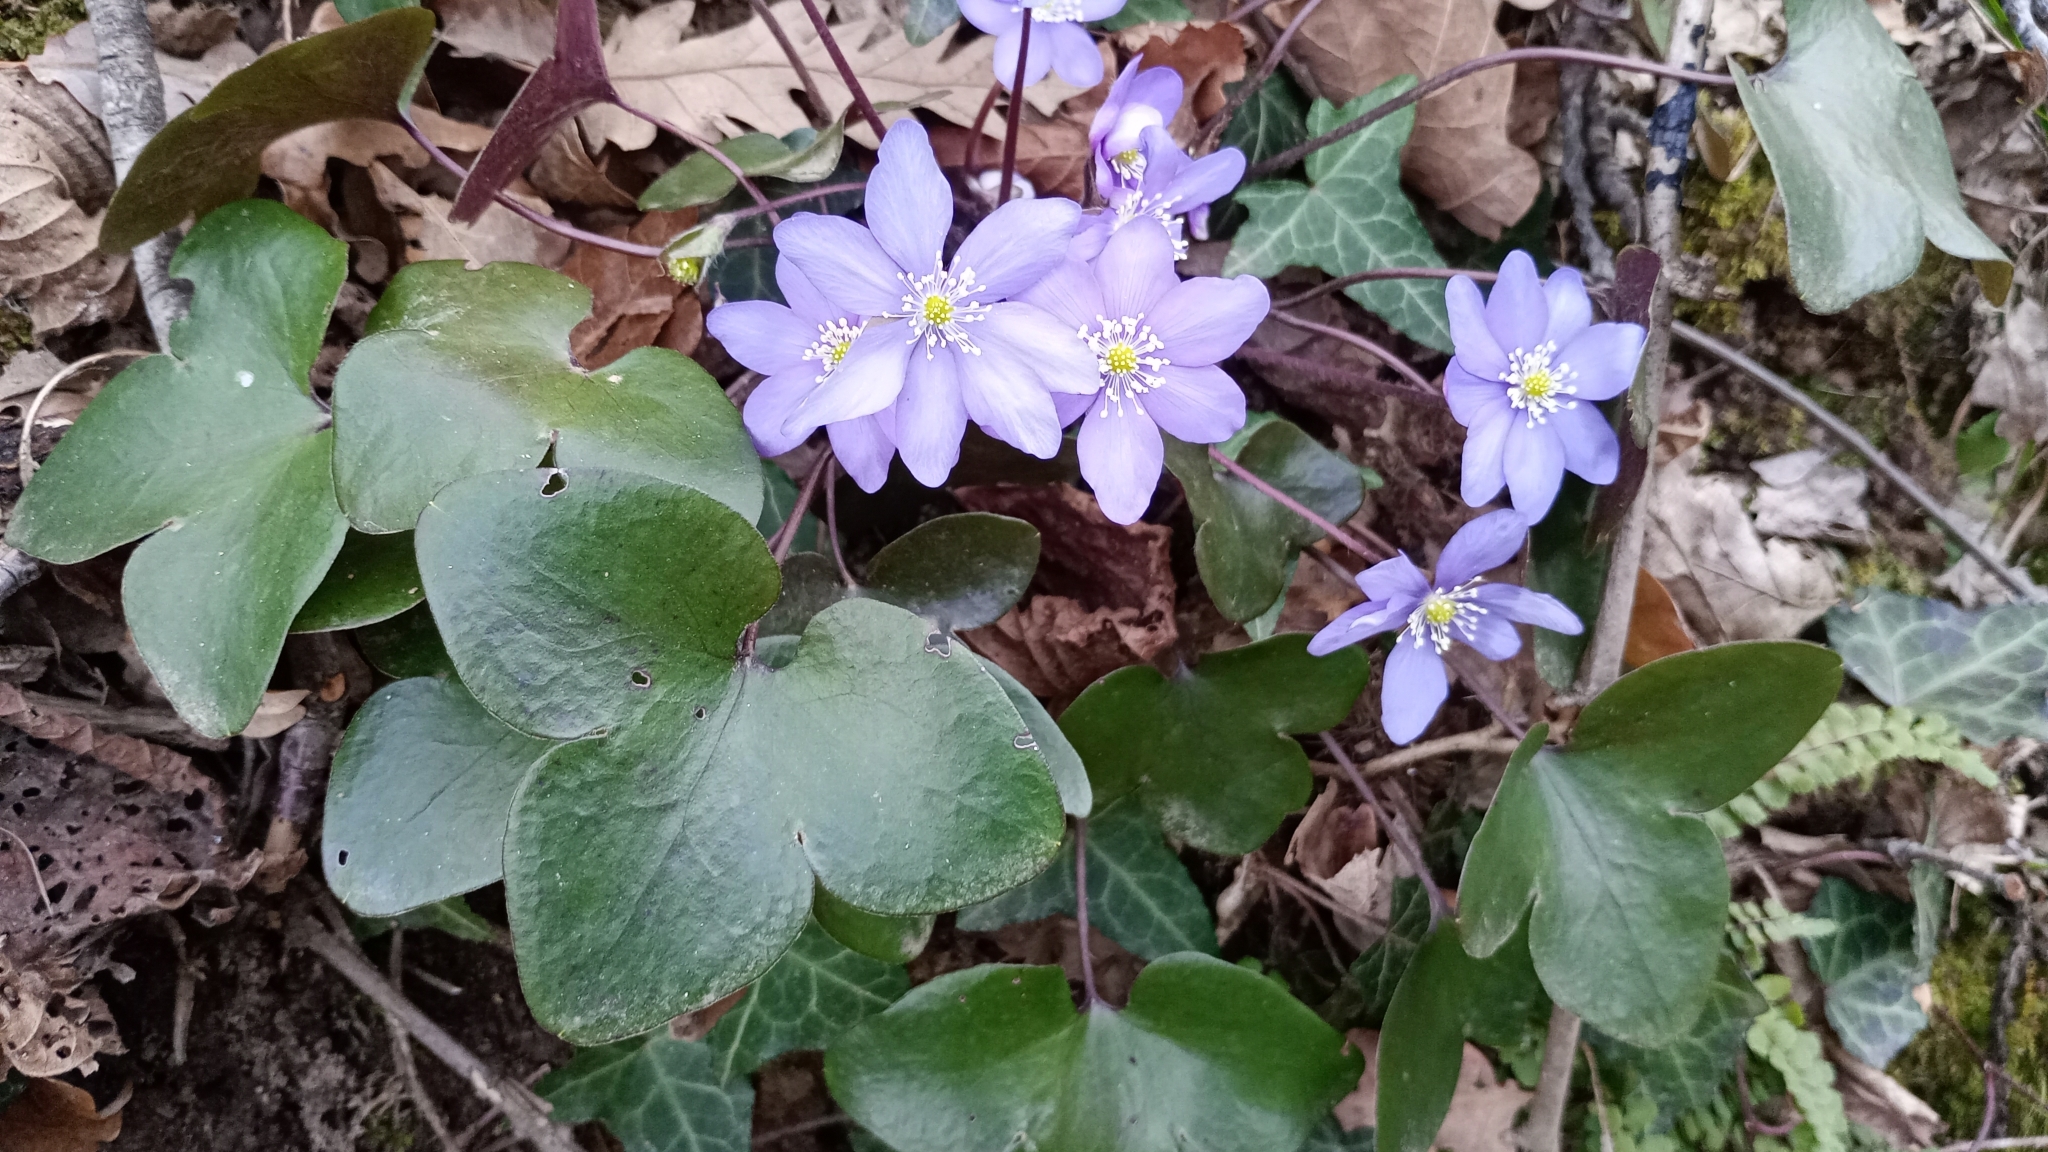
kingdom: Plantae
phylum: Tracheophyta
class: Magnoliopsida
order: Ranunculales
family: Ranunculaceae
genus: Hepatica
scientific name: Hepatica nobilis
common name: Liverleaf
